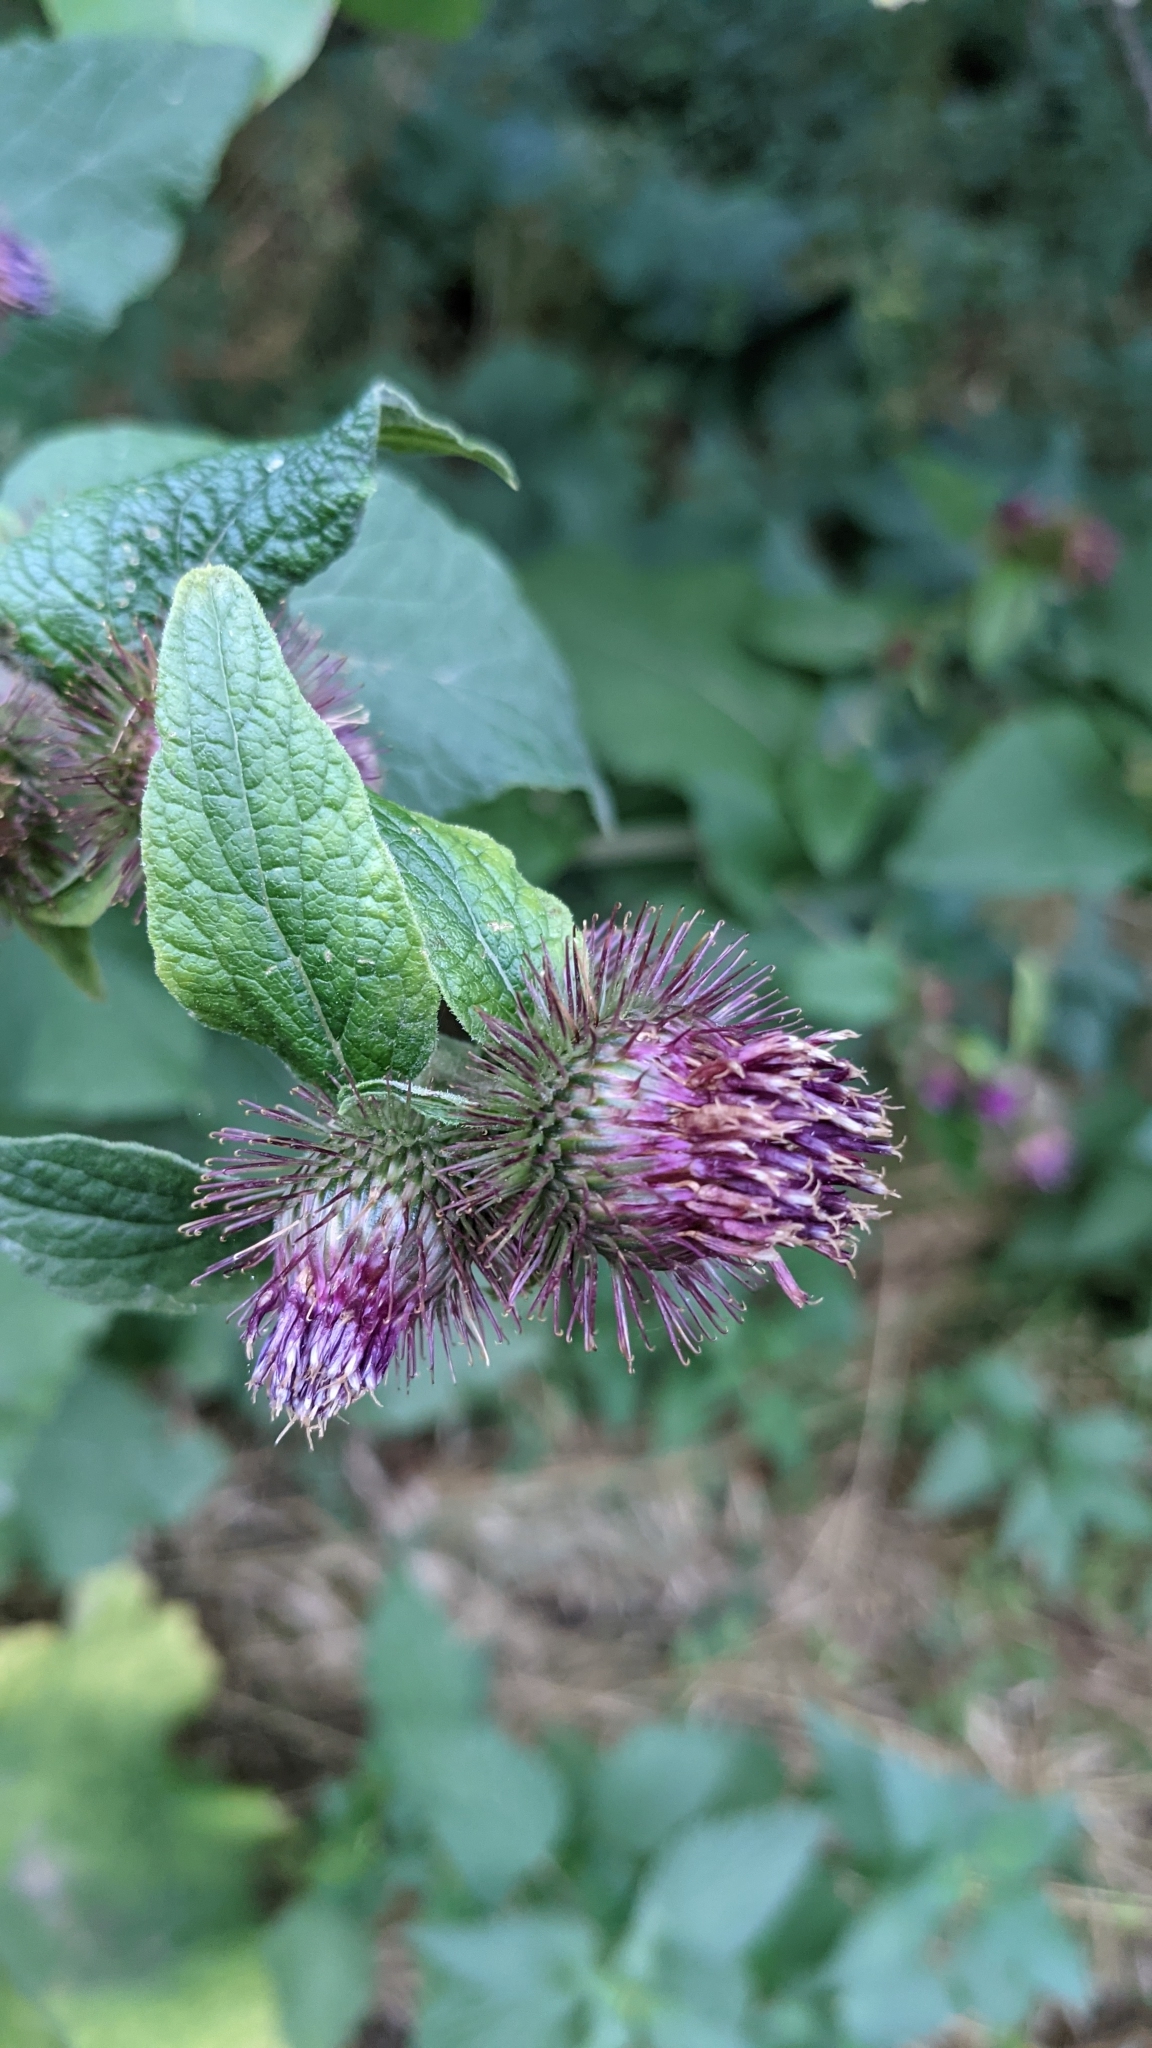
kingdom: Plantae
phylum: Tracheophyta
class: Magnoliopsida
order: Asterales
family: Asteraceae
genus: Arctium
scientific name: Arctium minus
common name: Lesser burdock
